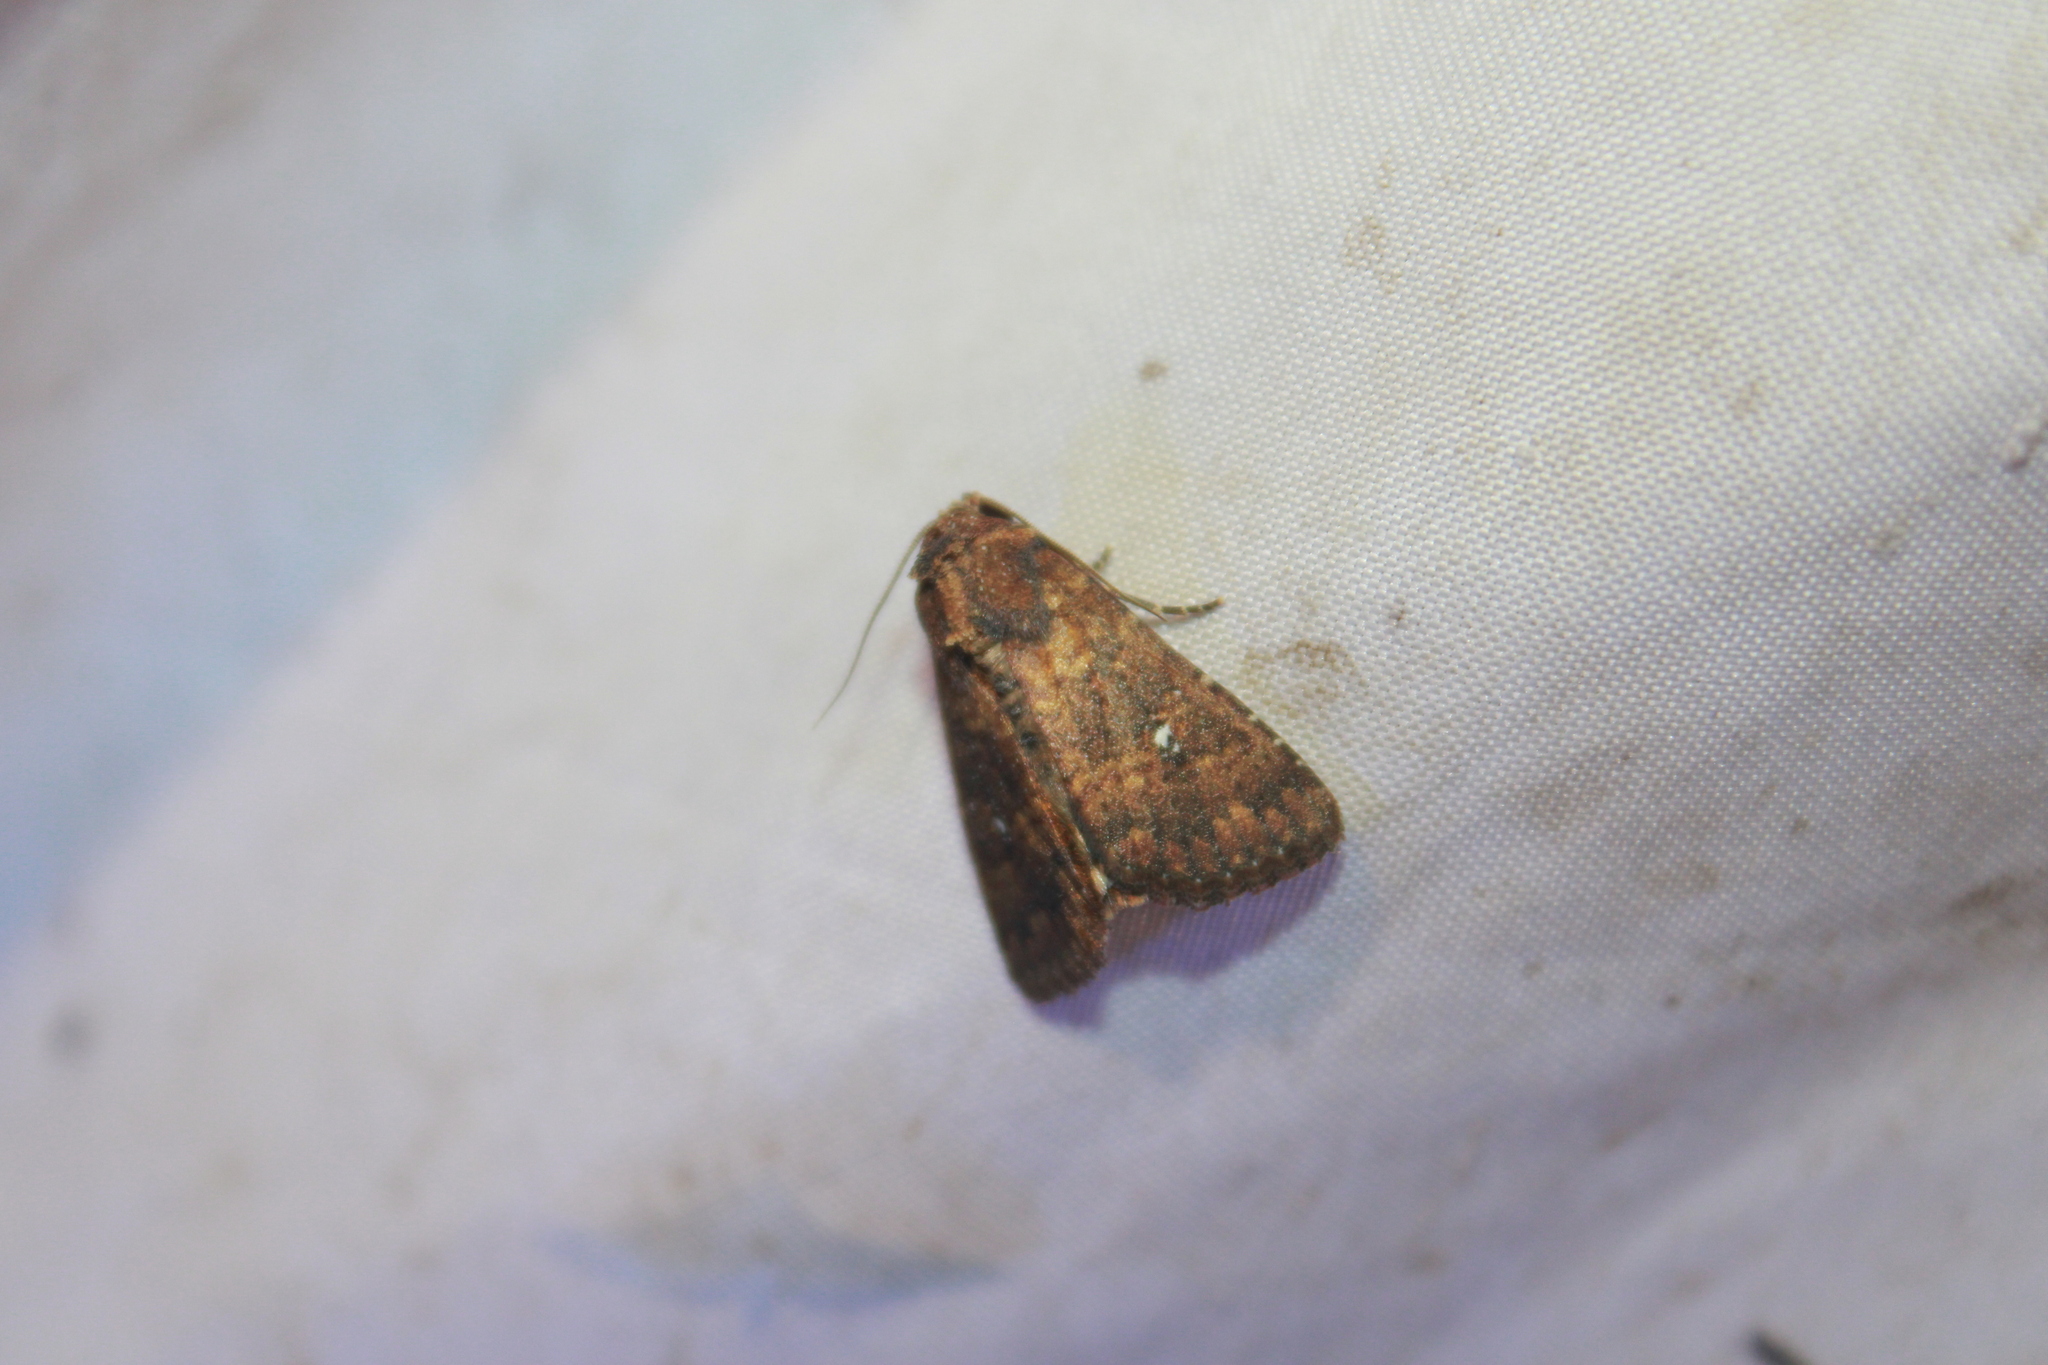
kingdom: Animalia
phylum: Arthropoda
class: Insecta
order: Lepidoptera
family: Noctuidae
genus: Condica
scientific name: Condica mobilis
